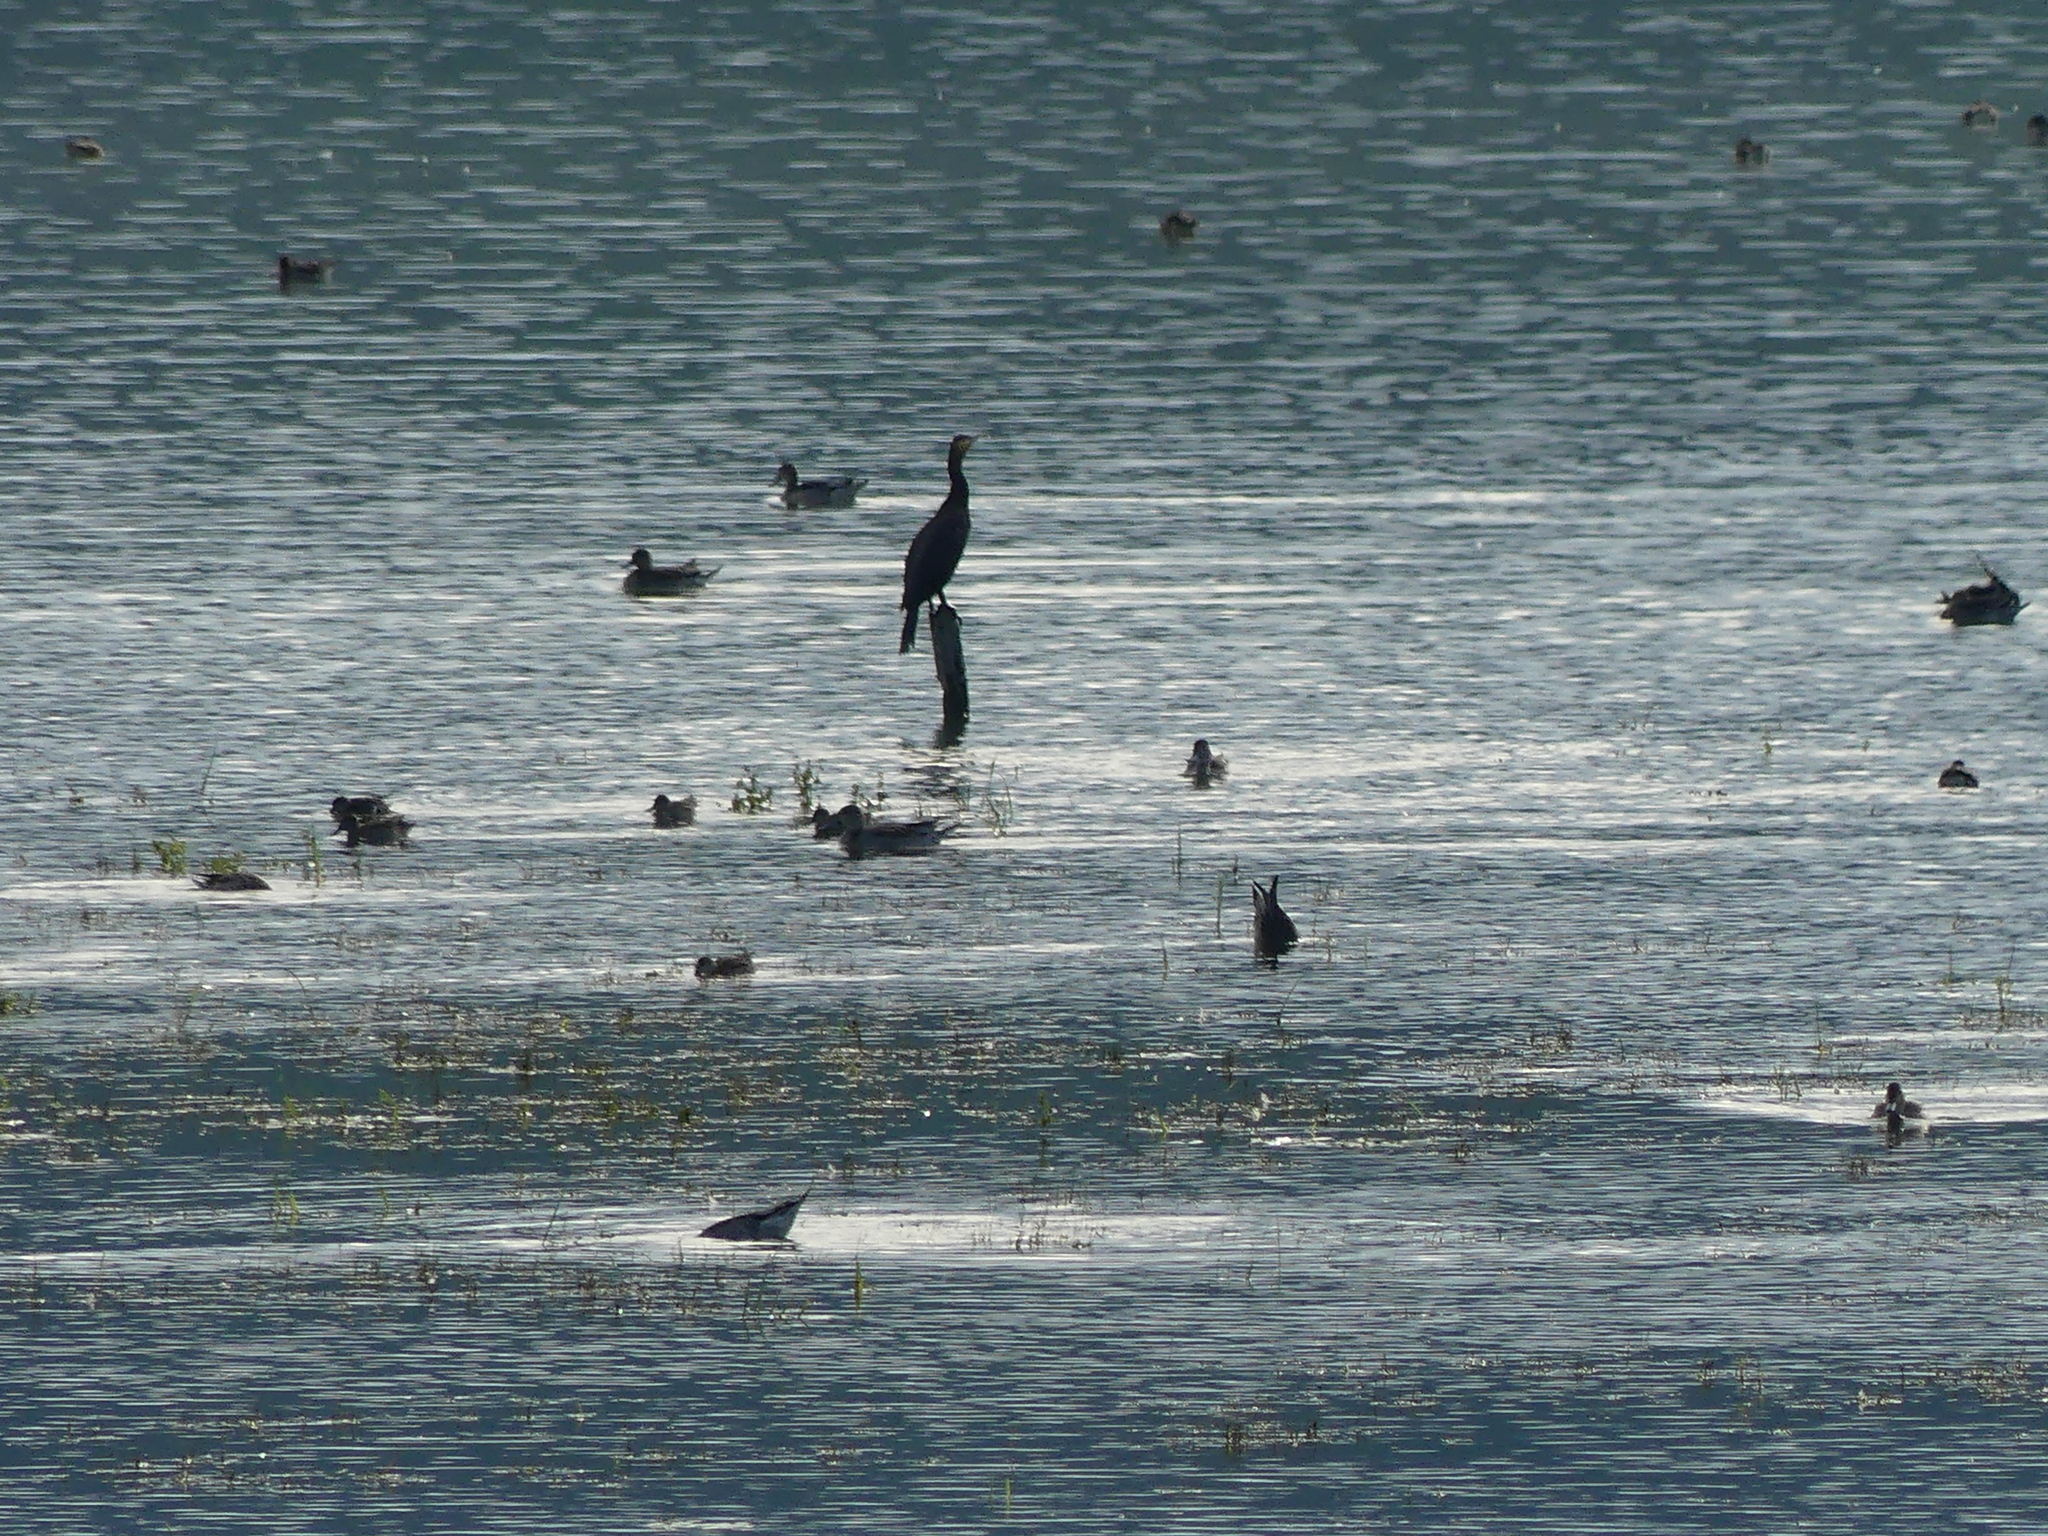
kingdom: Animalia
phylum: Chordata
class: Aves
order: Suliformes
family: Phalacrocoracidae
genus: Phalacrocorax
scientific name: Phalacrocorax carbo
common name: Great cormorant
